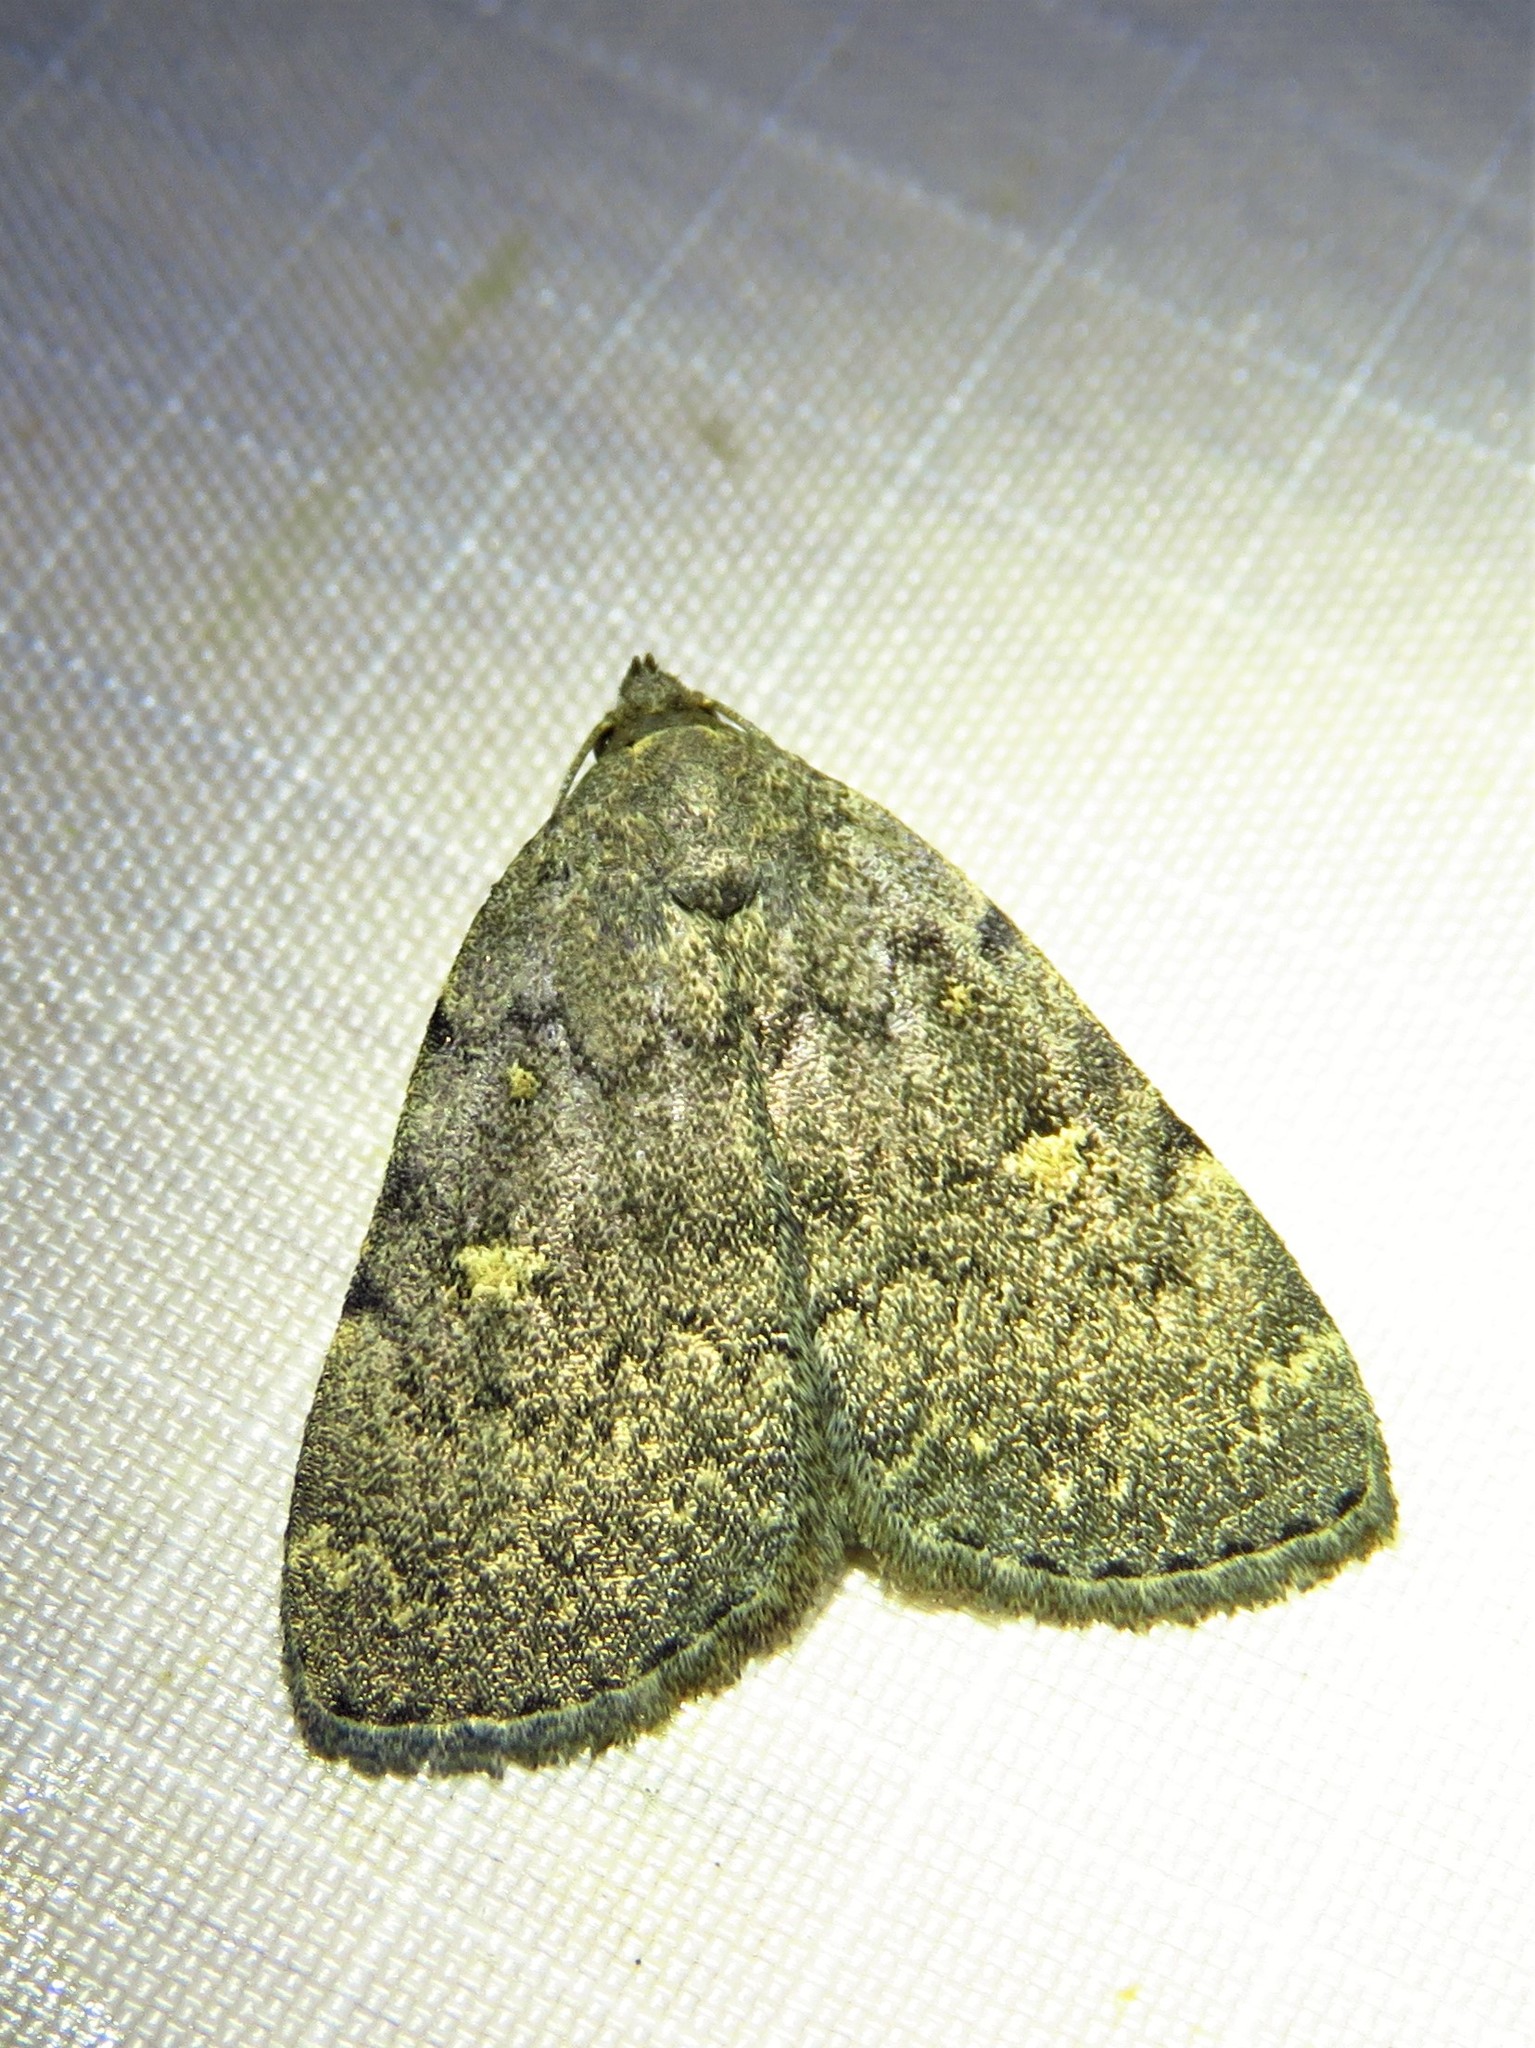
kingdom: Animalia
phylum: Arthropoda
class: Insecta
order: Lepidoptera
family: Erebidae
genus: Idia
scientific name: Idia aemula
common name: Common idia moth
